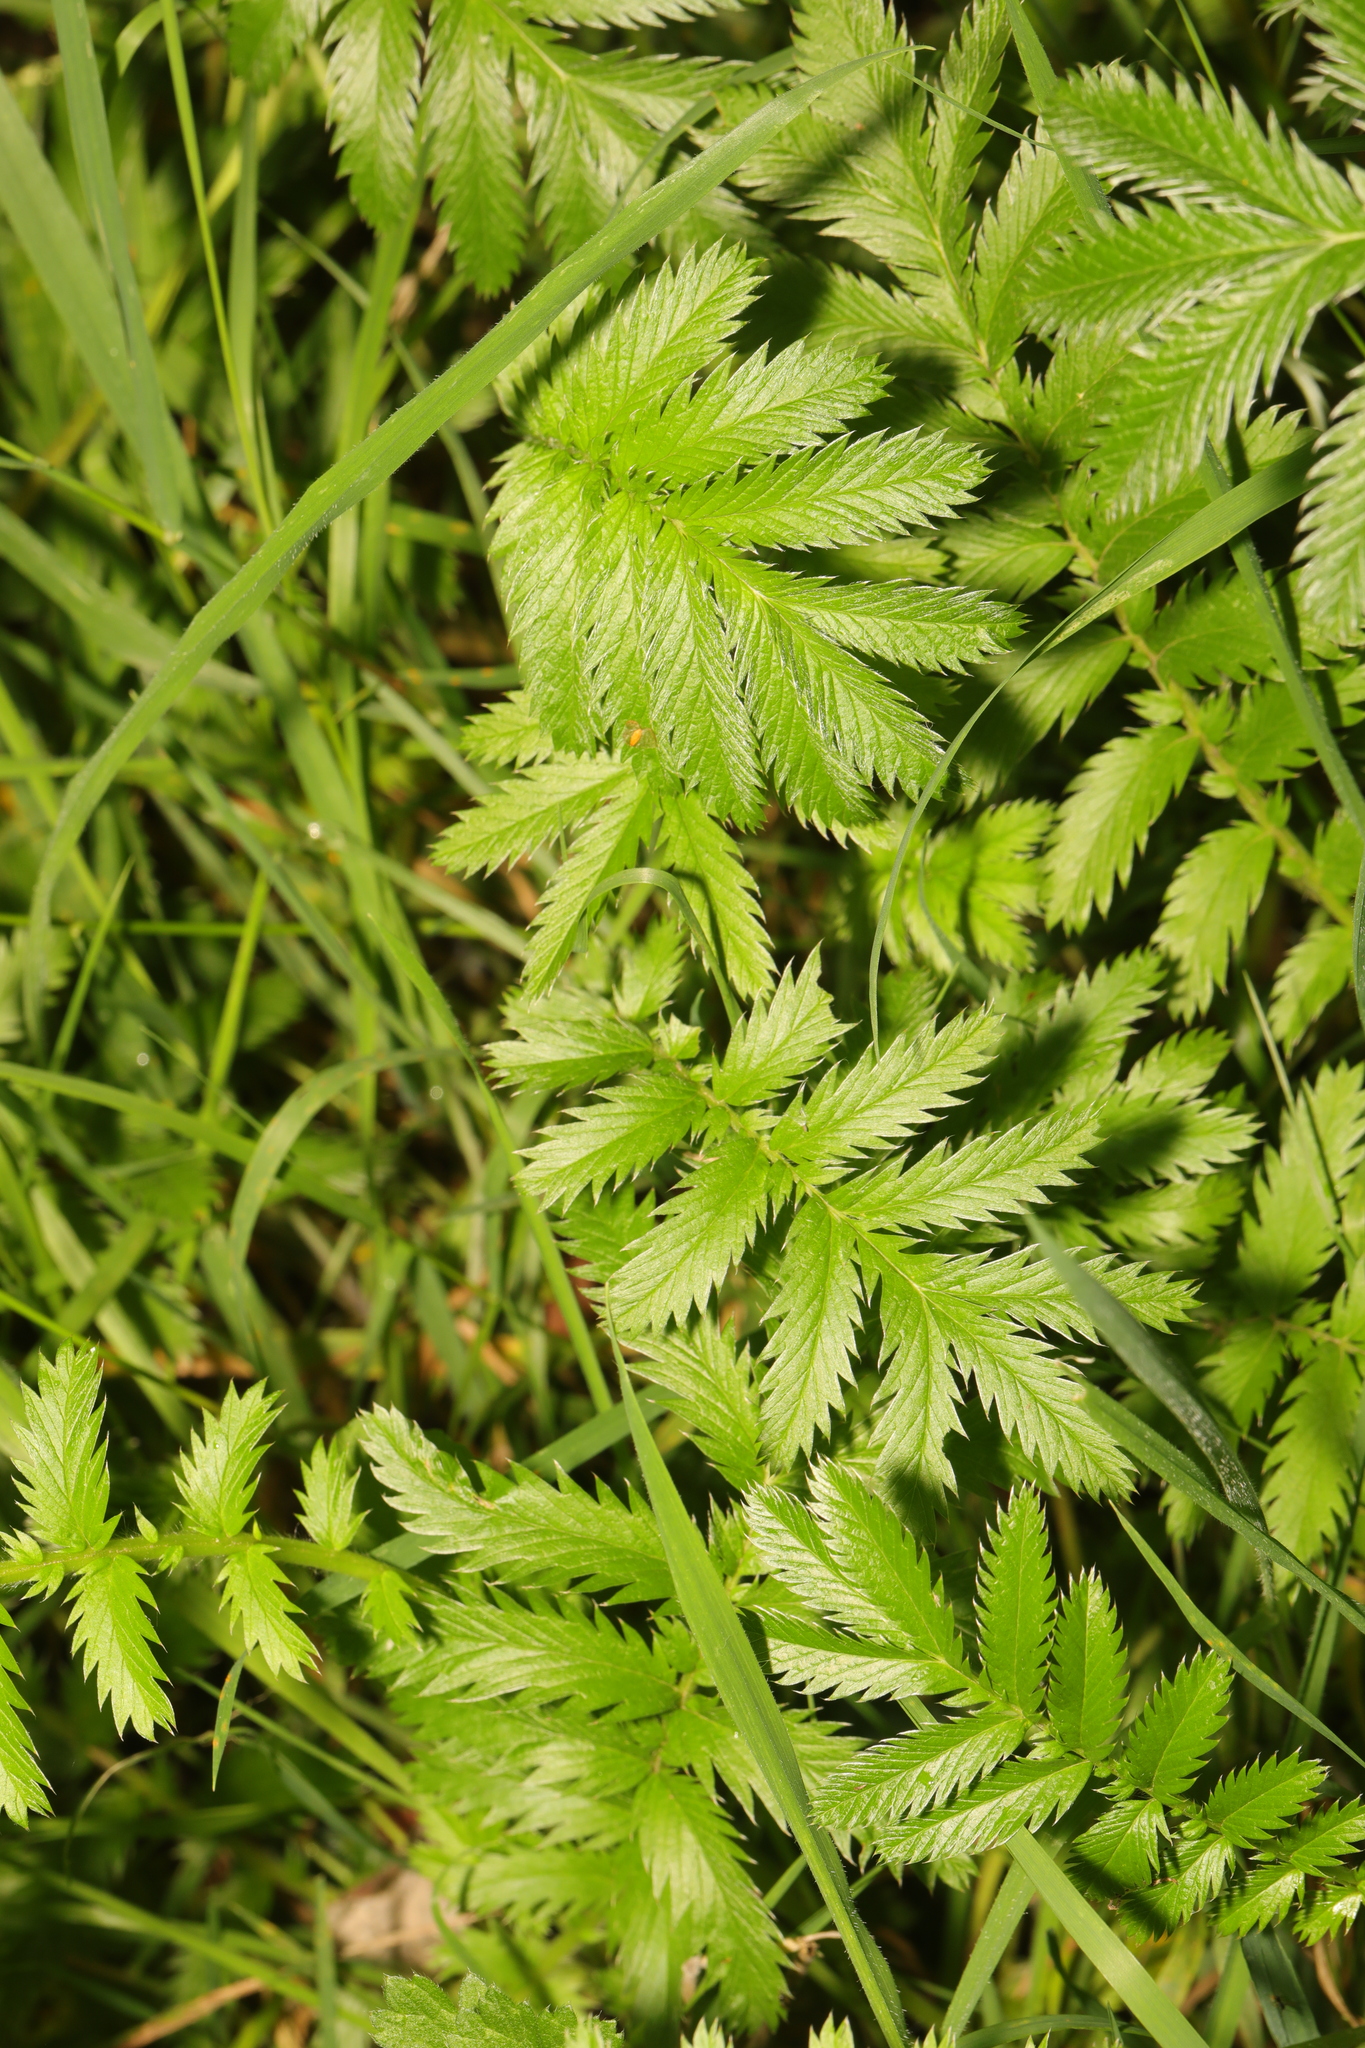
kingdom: Plantae
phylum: Tracheophyta
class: Magnoliopsida
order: Rosales
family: Rosaceae
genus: Argentina
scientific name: Argentina anserina
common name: Common silverweed
